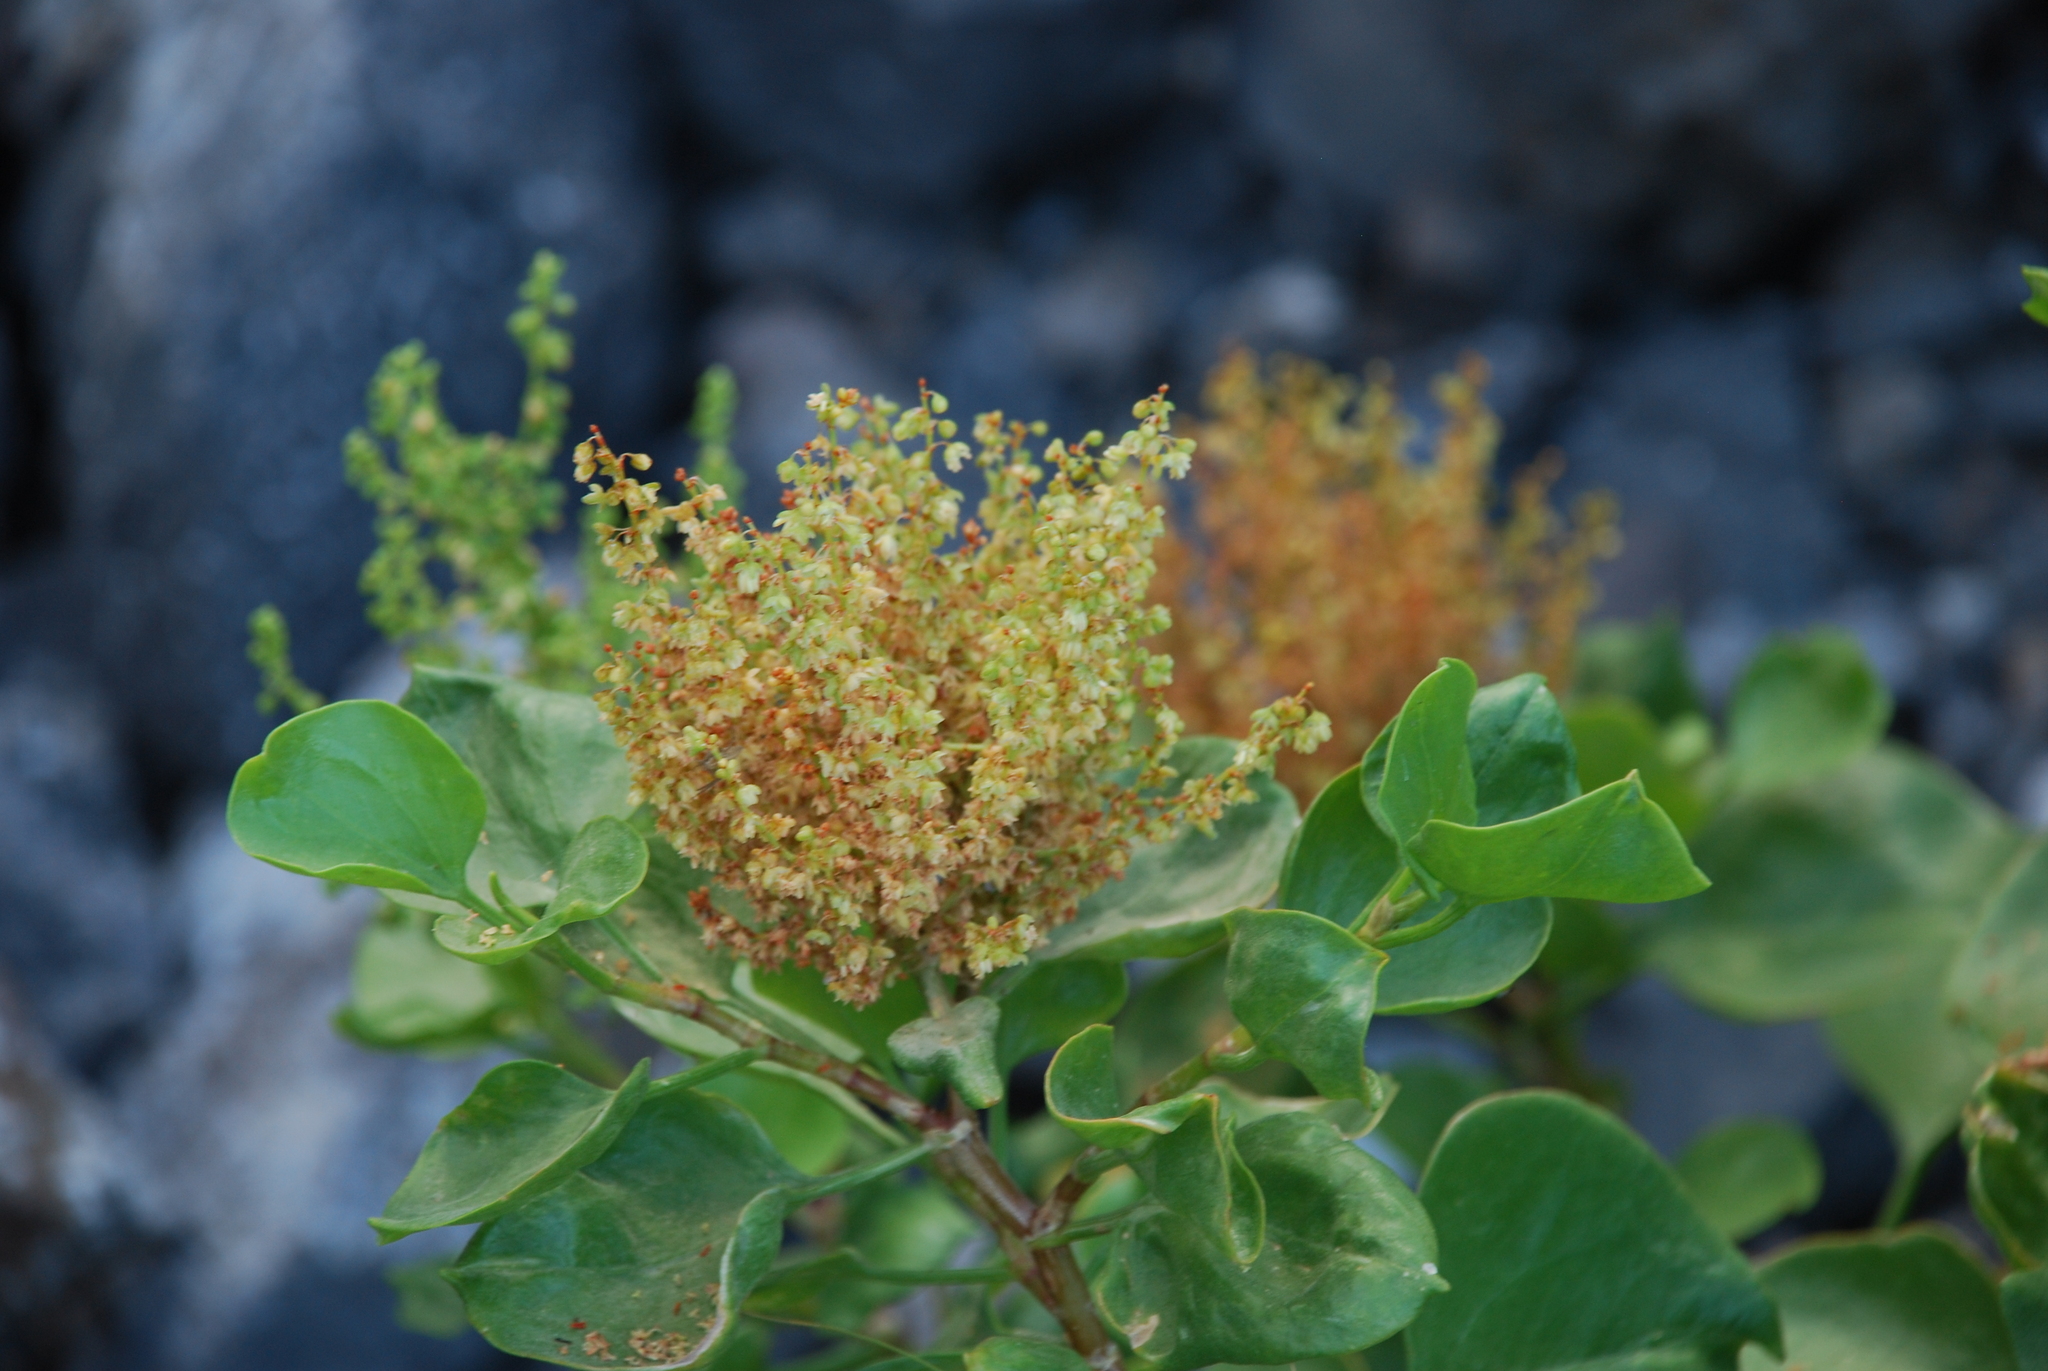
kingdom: Plantae
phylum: Tracheophyta
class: Magnoliopsida
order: Caryophyllales
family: Polygonaceae
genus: Rumex
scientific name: Rumex lunaria
